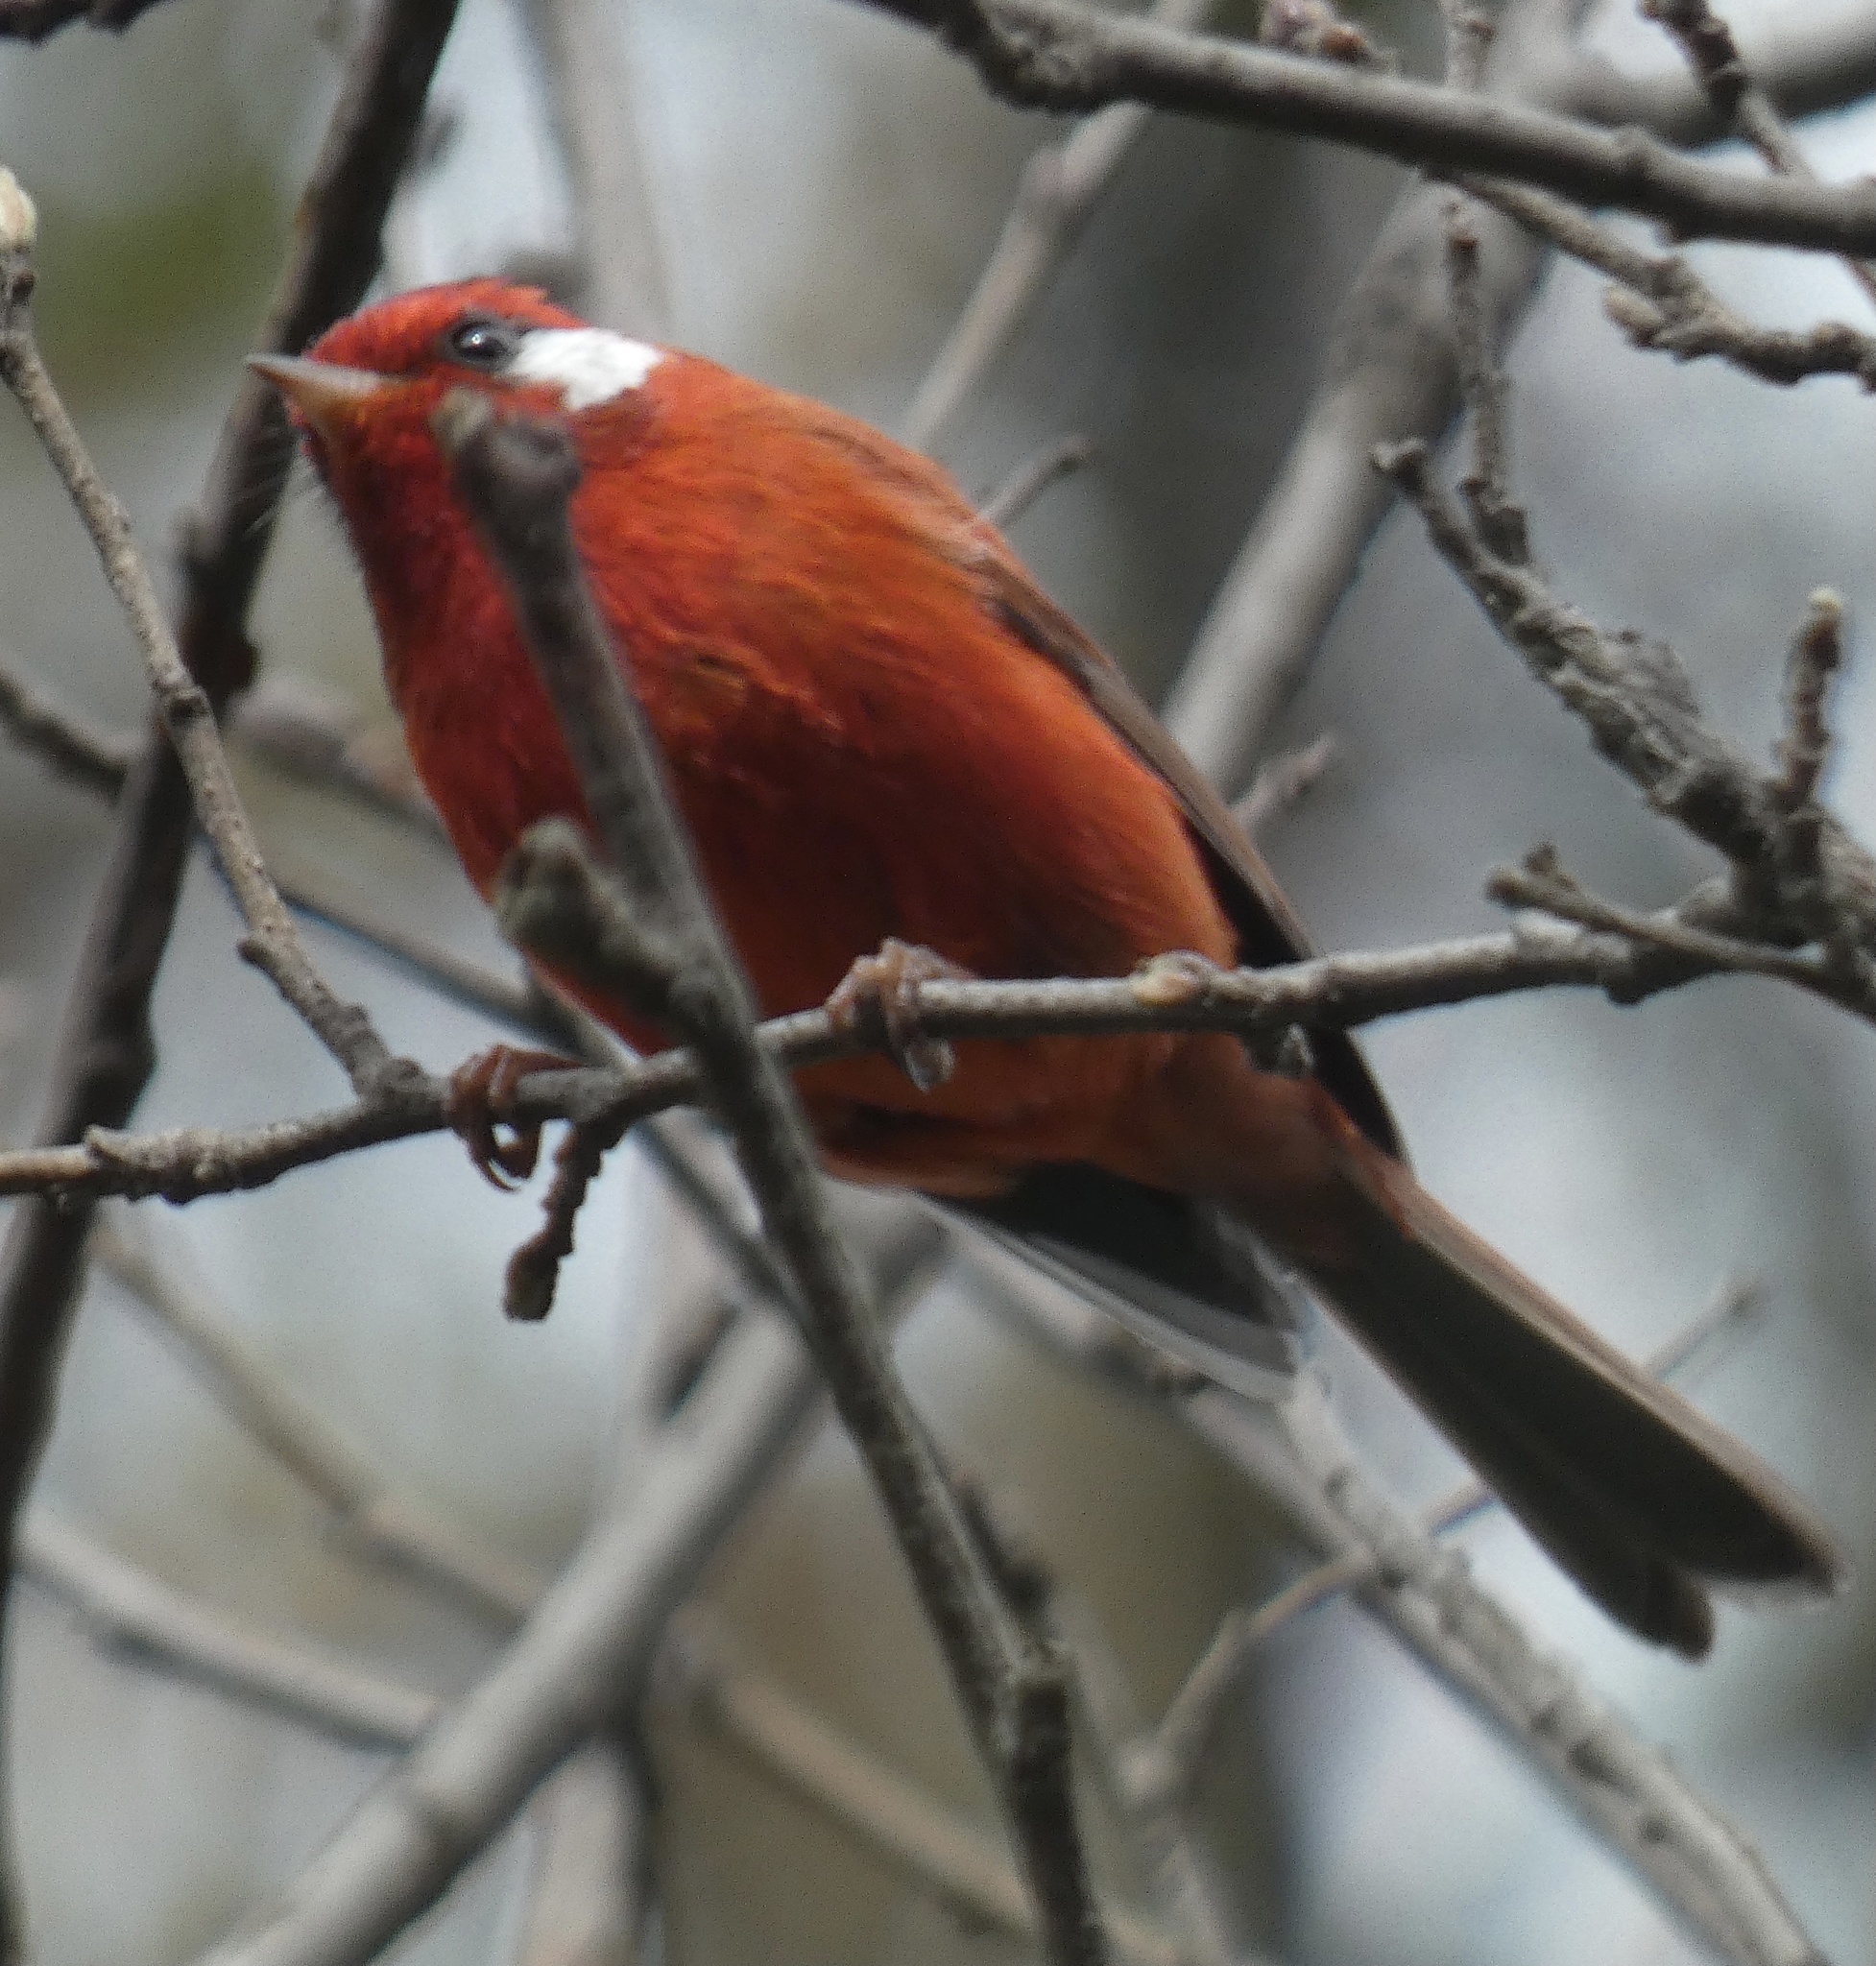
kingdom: Animalia
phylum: Chordata
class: Aves
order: Passeriformes
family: Parulidae
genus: Cardellina
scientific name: Cardellina rubra
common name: Red warbler
